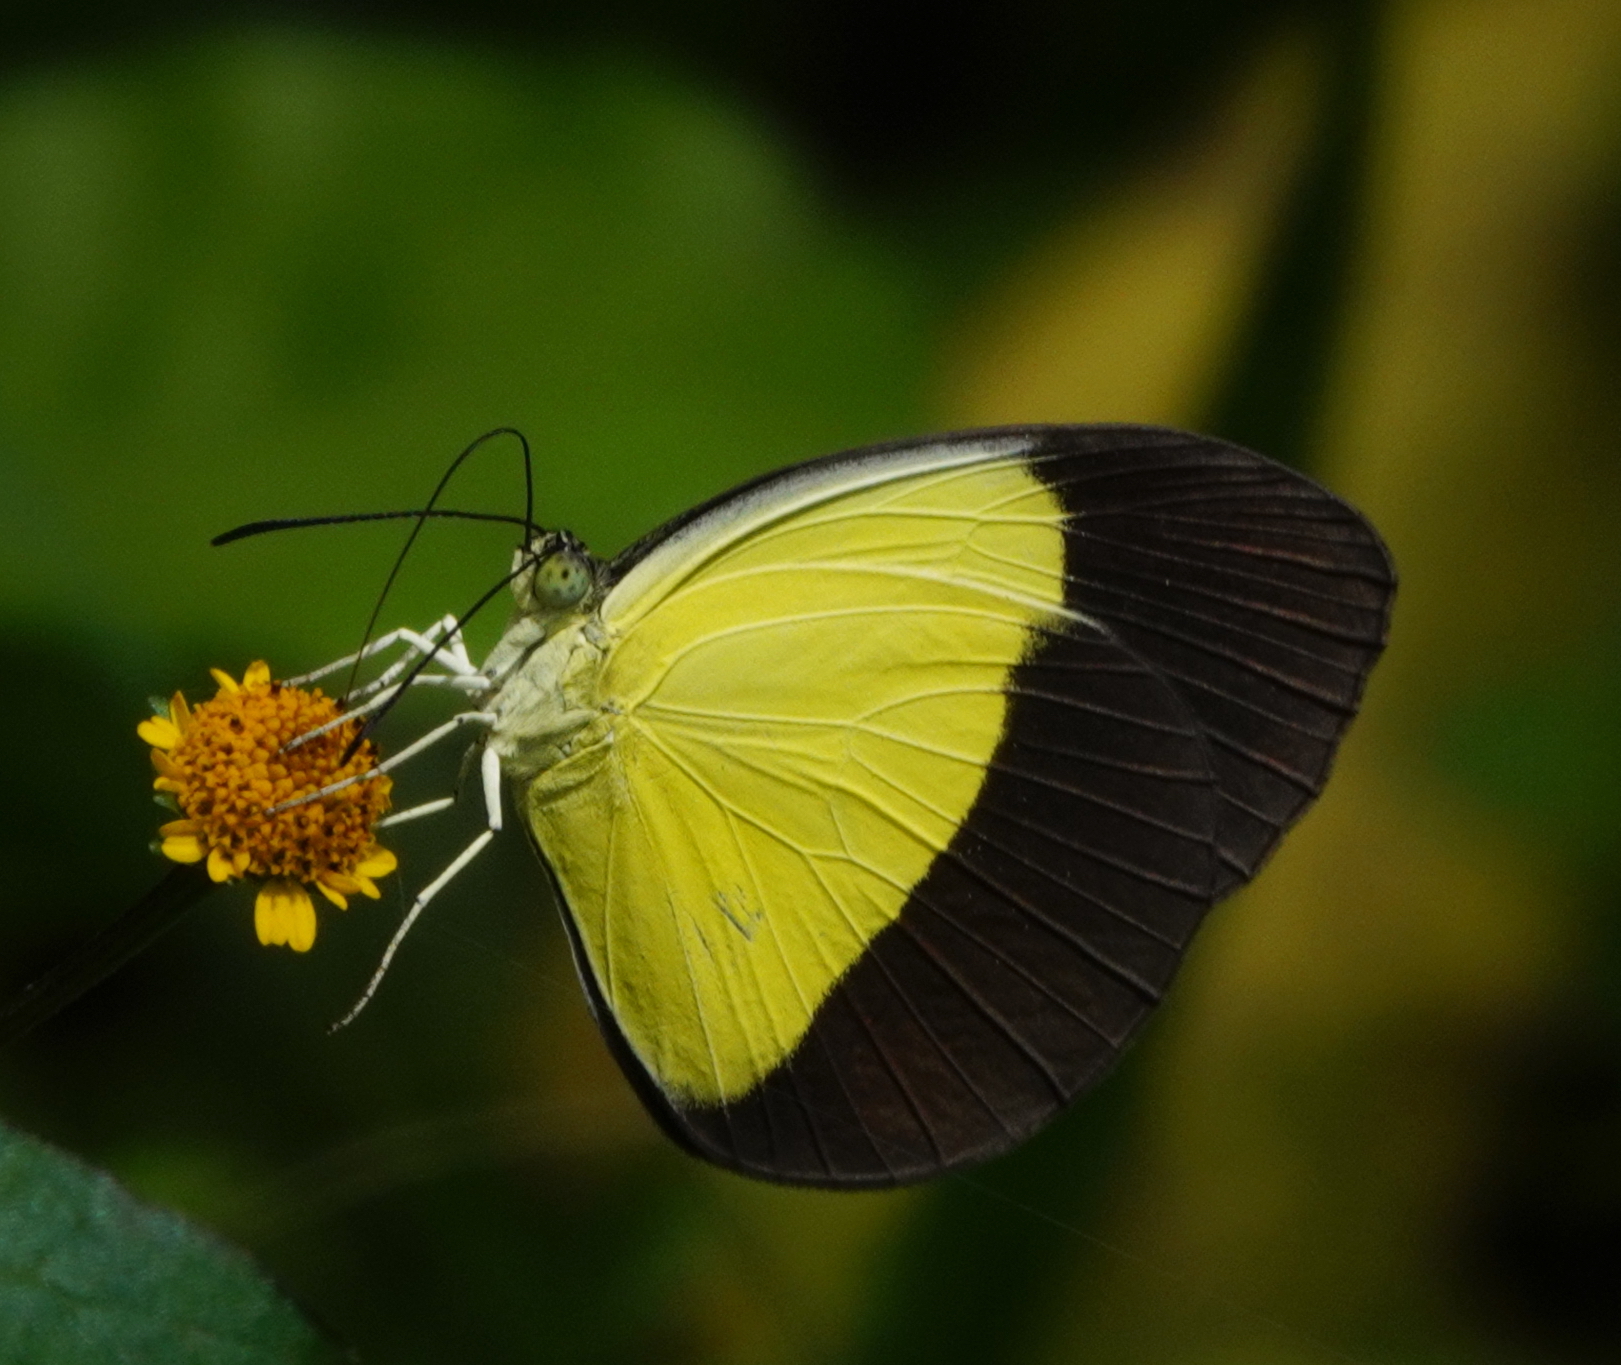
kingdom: Animalia
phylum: Arthropoda
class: Insecta
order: Lepidoptera
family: Pieridae
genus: Eurema
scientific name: Eurema candida
